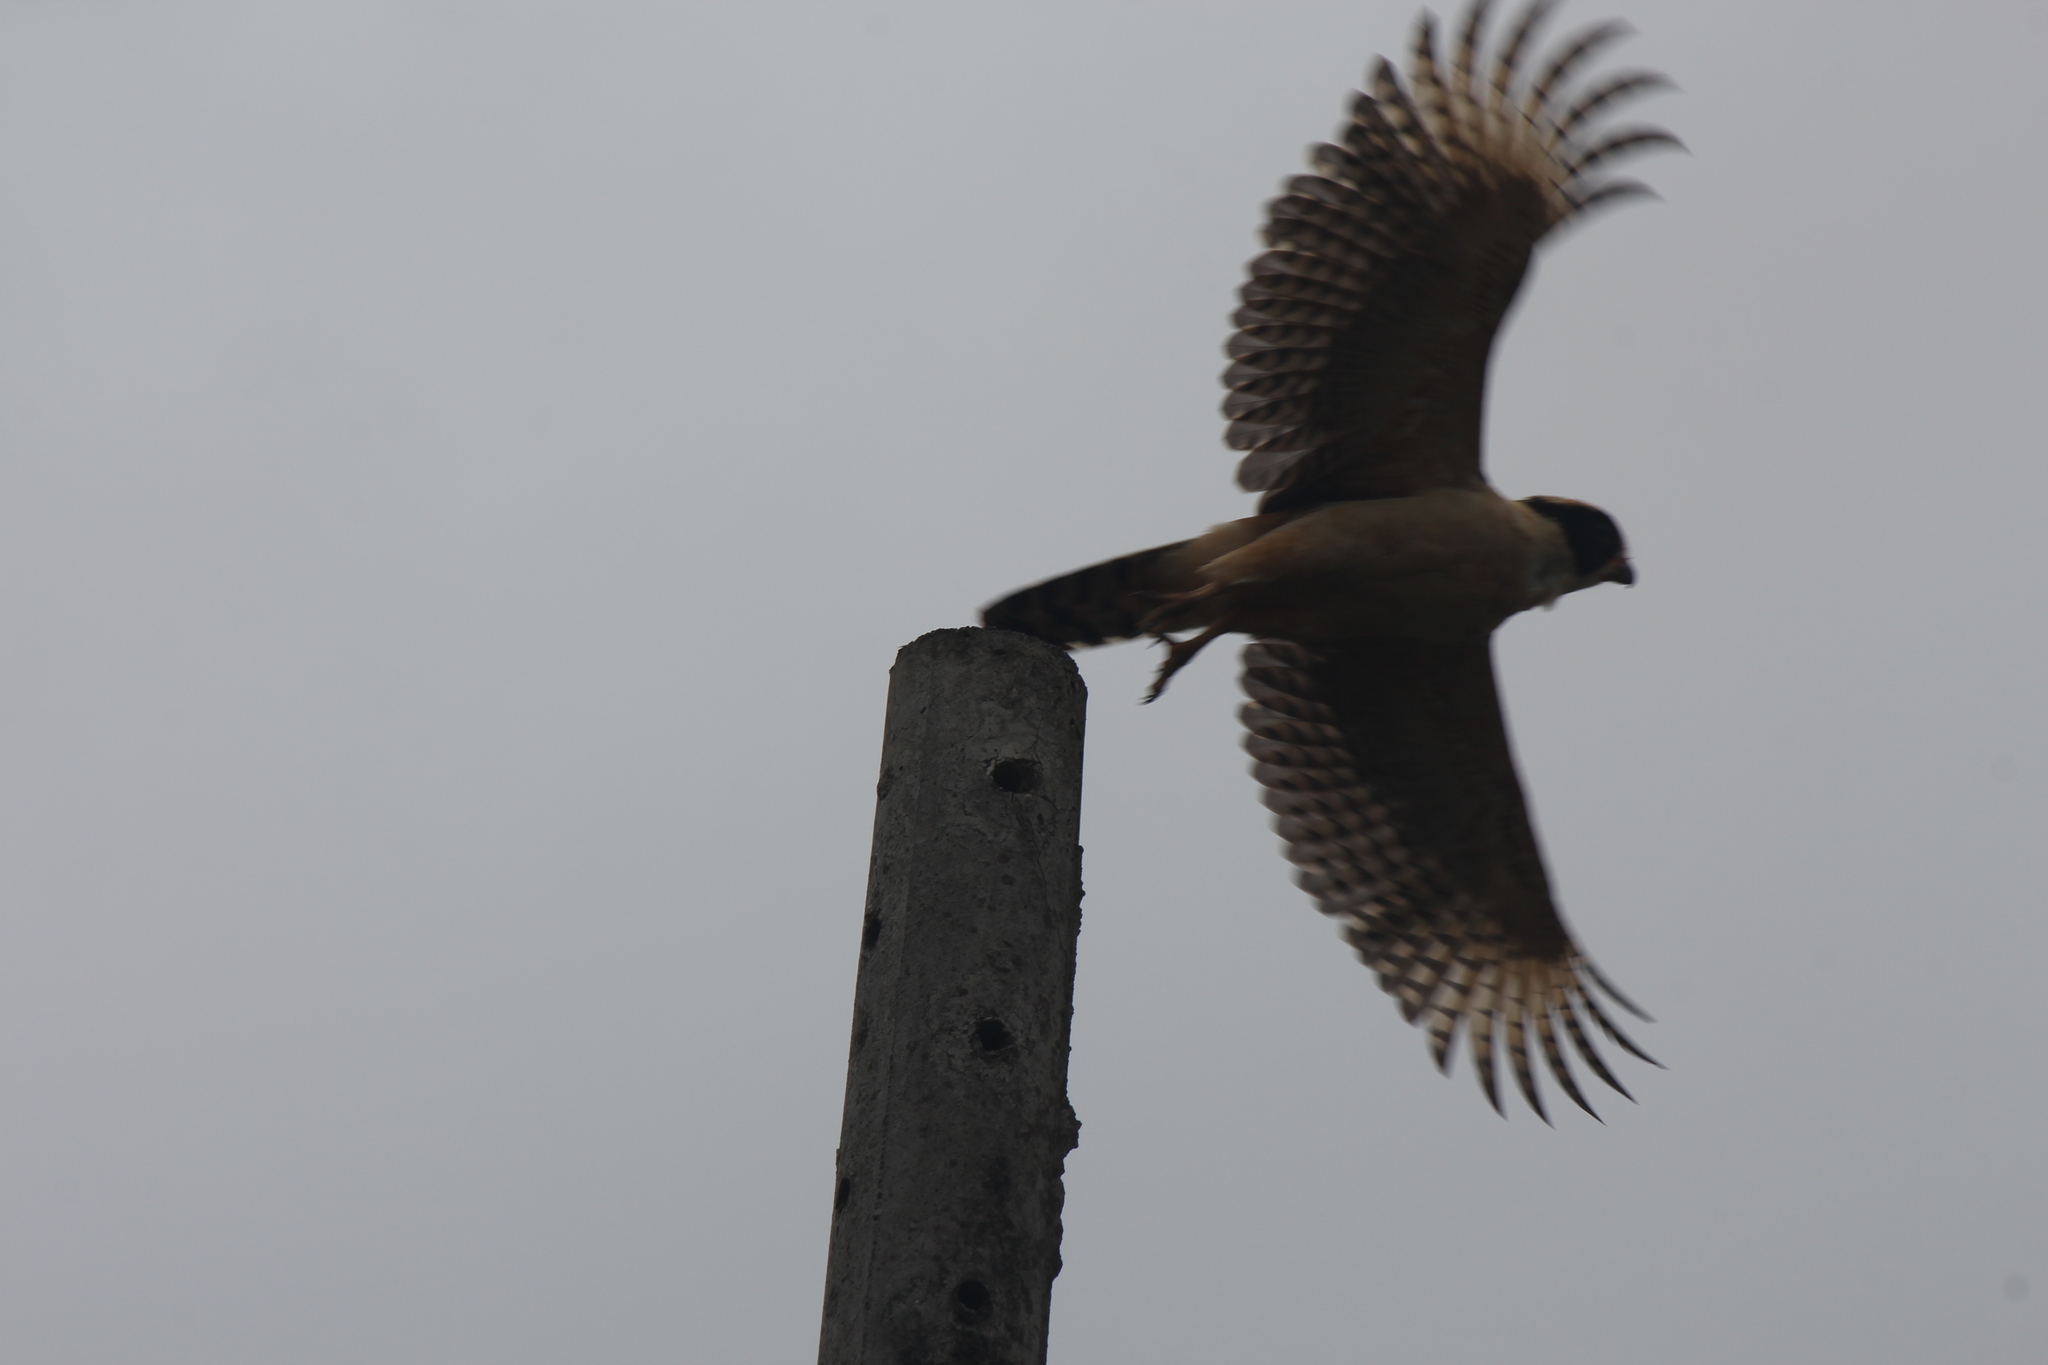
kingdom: Animalia
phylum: Chordata
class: Aves
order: Falconiformes
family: Falconidae
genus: Herpetotheres
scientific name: Herpetotheres cachinnans
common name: Laughing falcon
